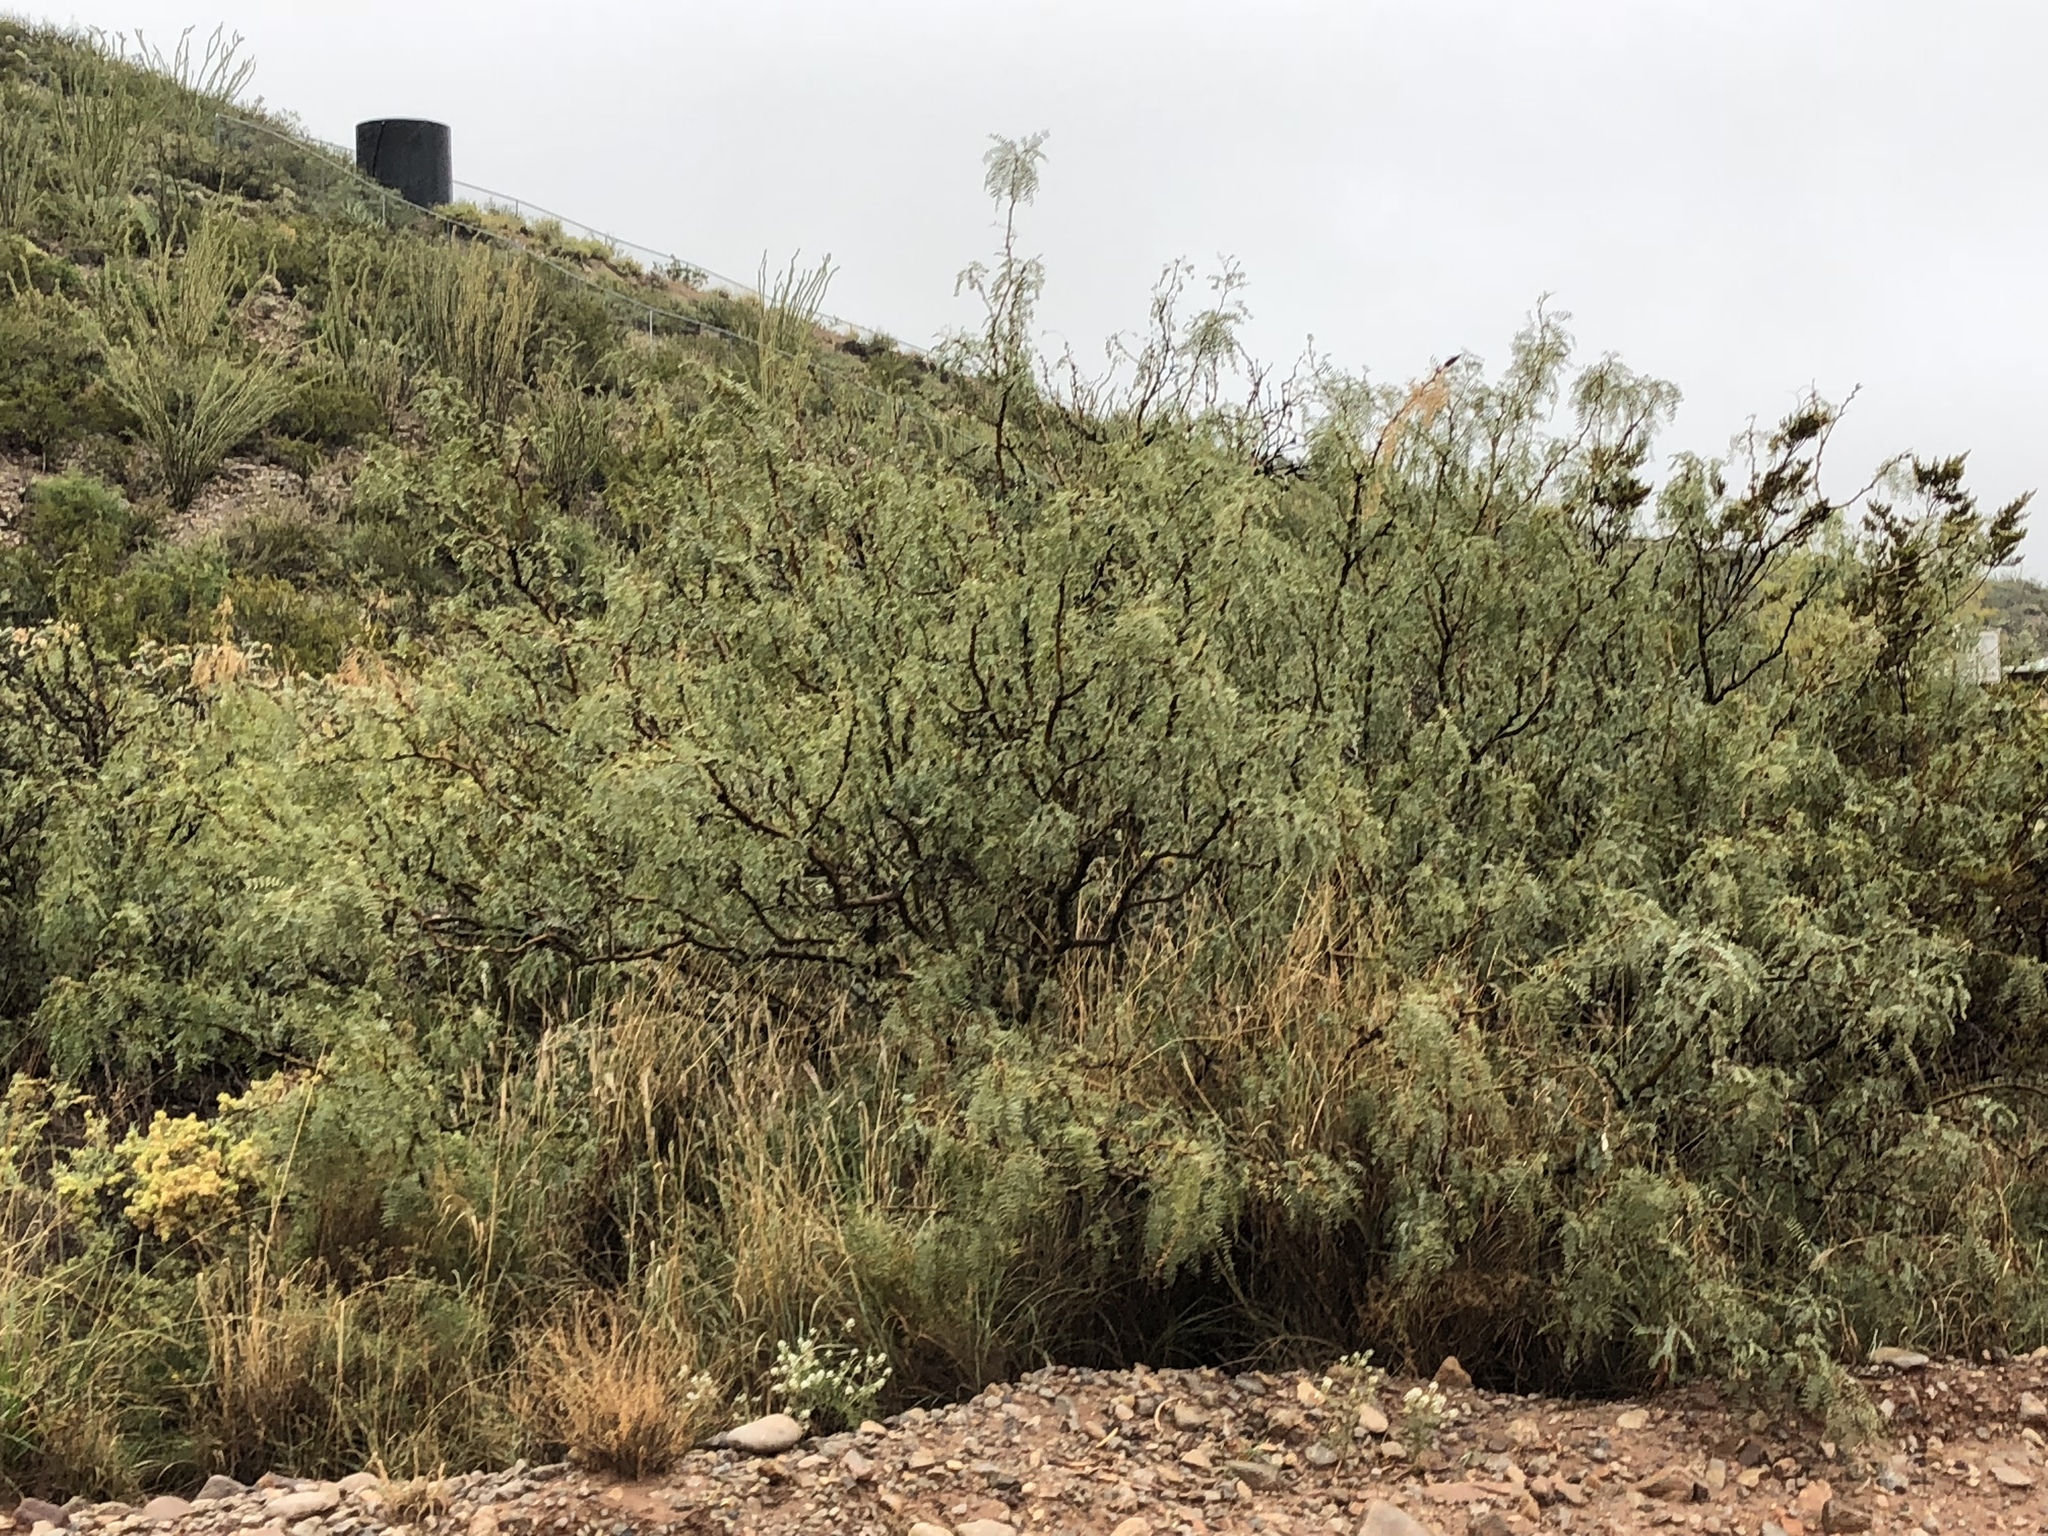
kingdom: Plantae
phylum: Tracheophyta
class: Magnoliopsida
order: Fabales
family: Fabaceae
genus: Prosopis
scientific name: Prosopis glandulosa
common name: Honey mesquite
